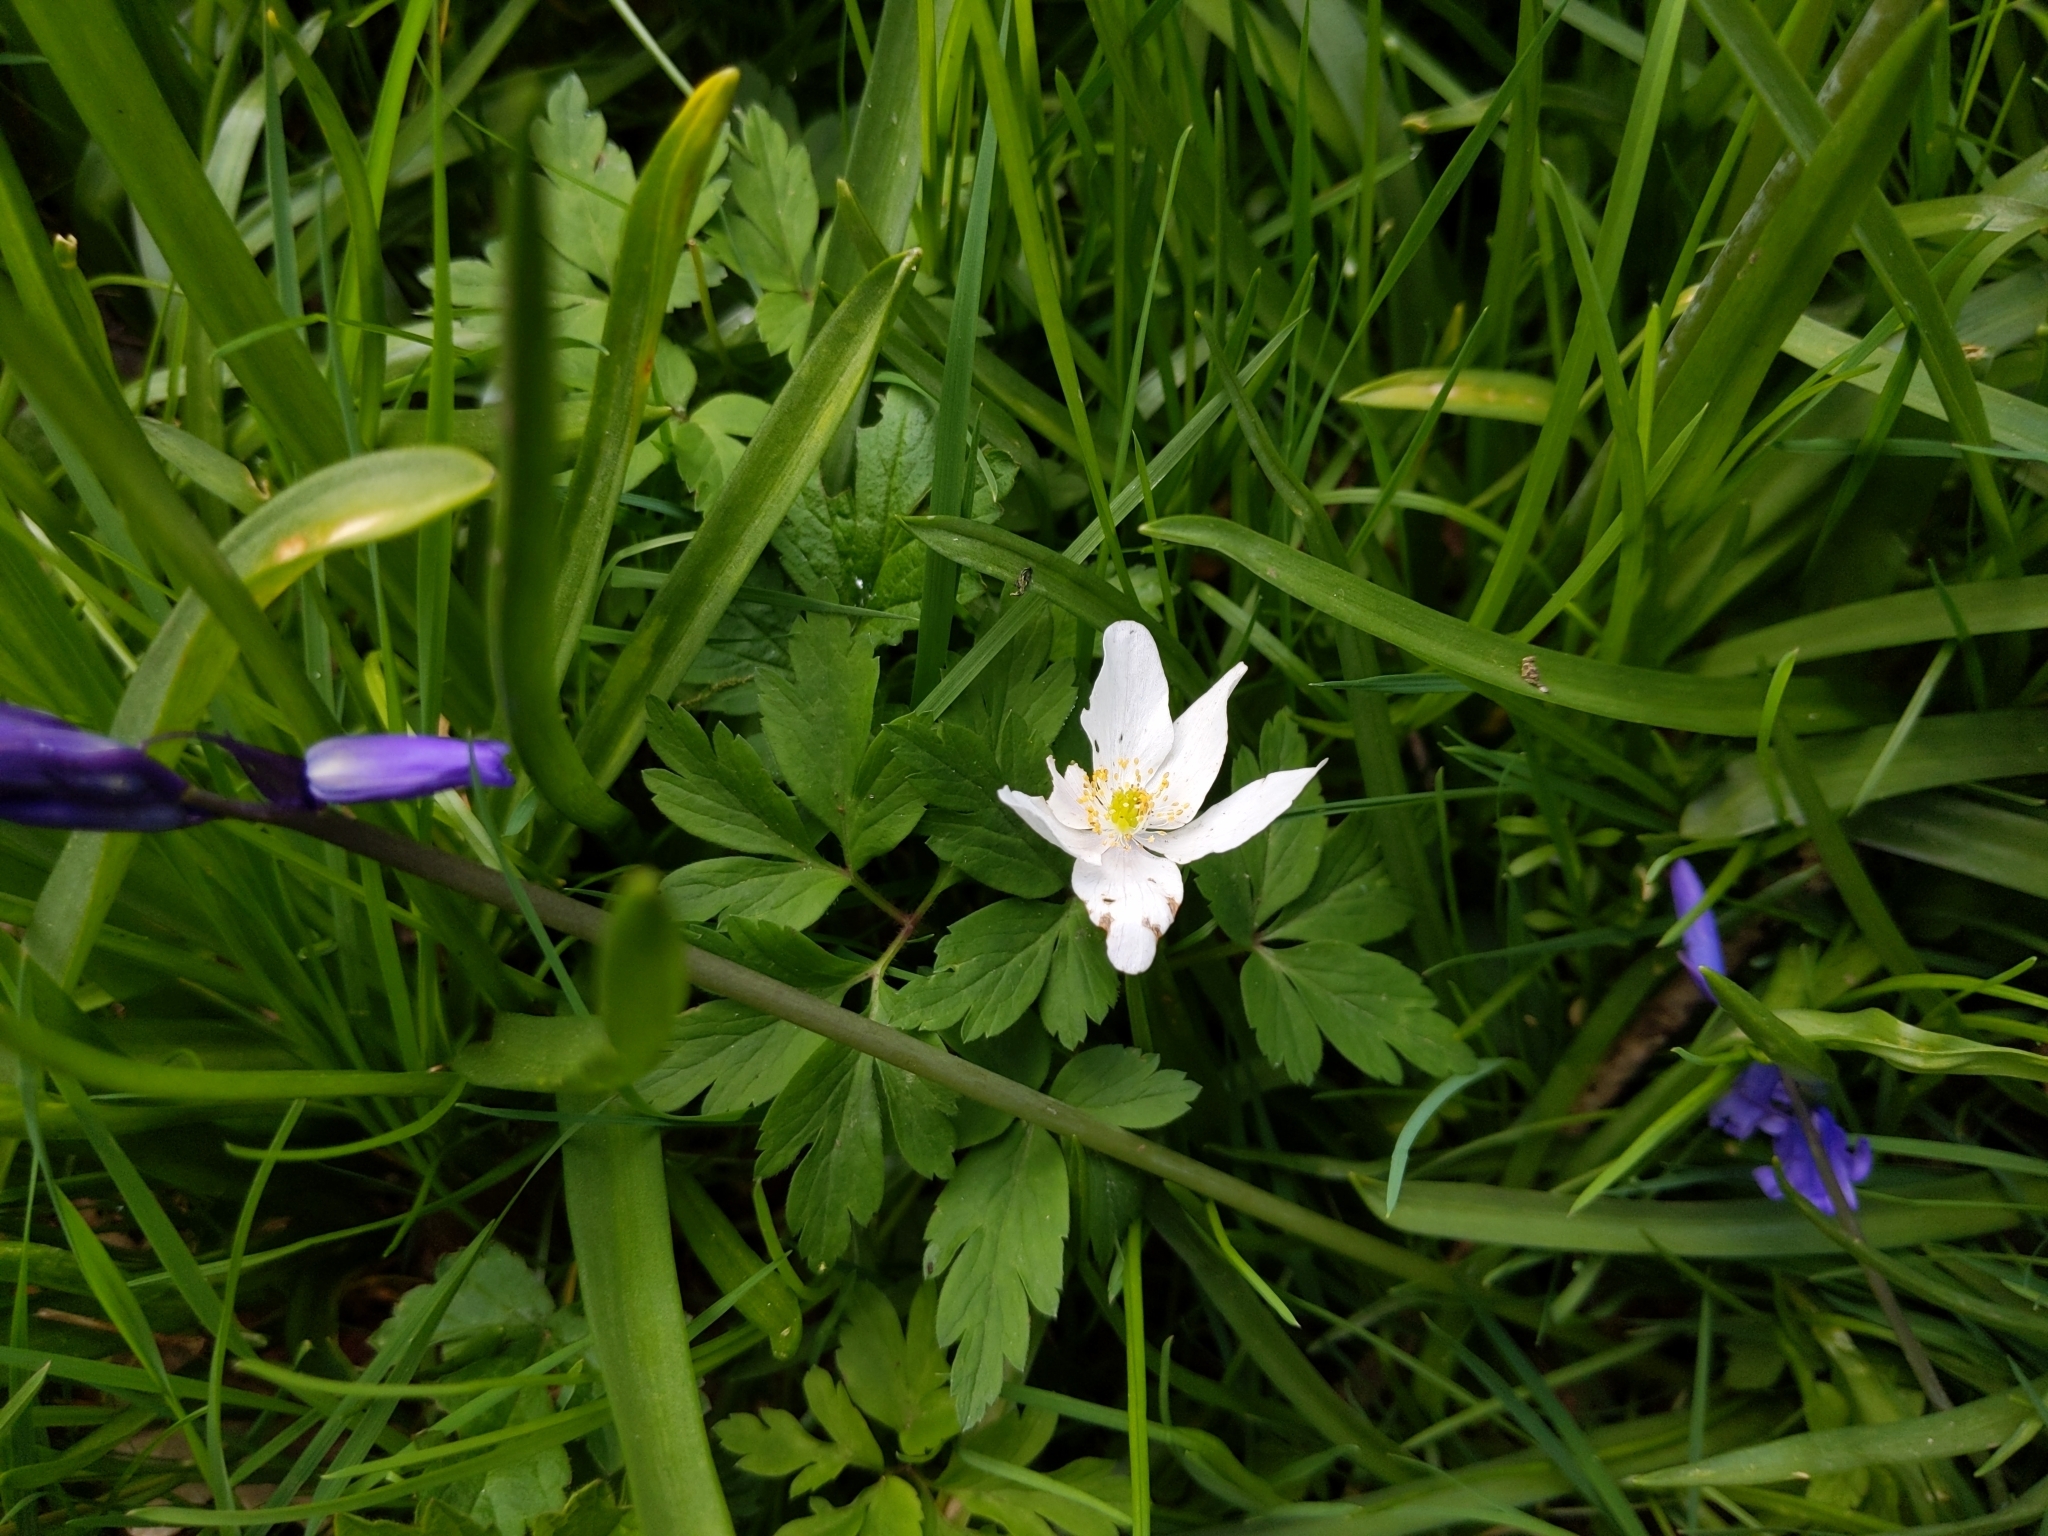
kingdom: Plantae
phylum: Tracheophyta
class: Magnoliopsida
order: Ranunculales
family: Ranunculaceae
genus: Anemone
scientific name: Anemone nemorosa
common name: Wood anemone
